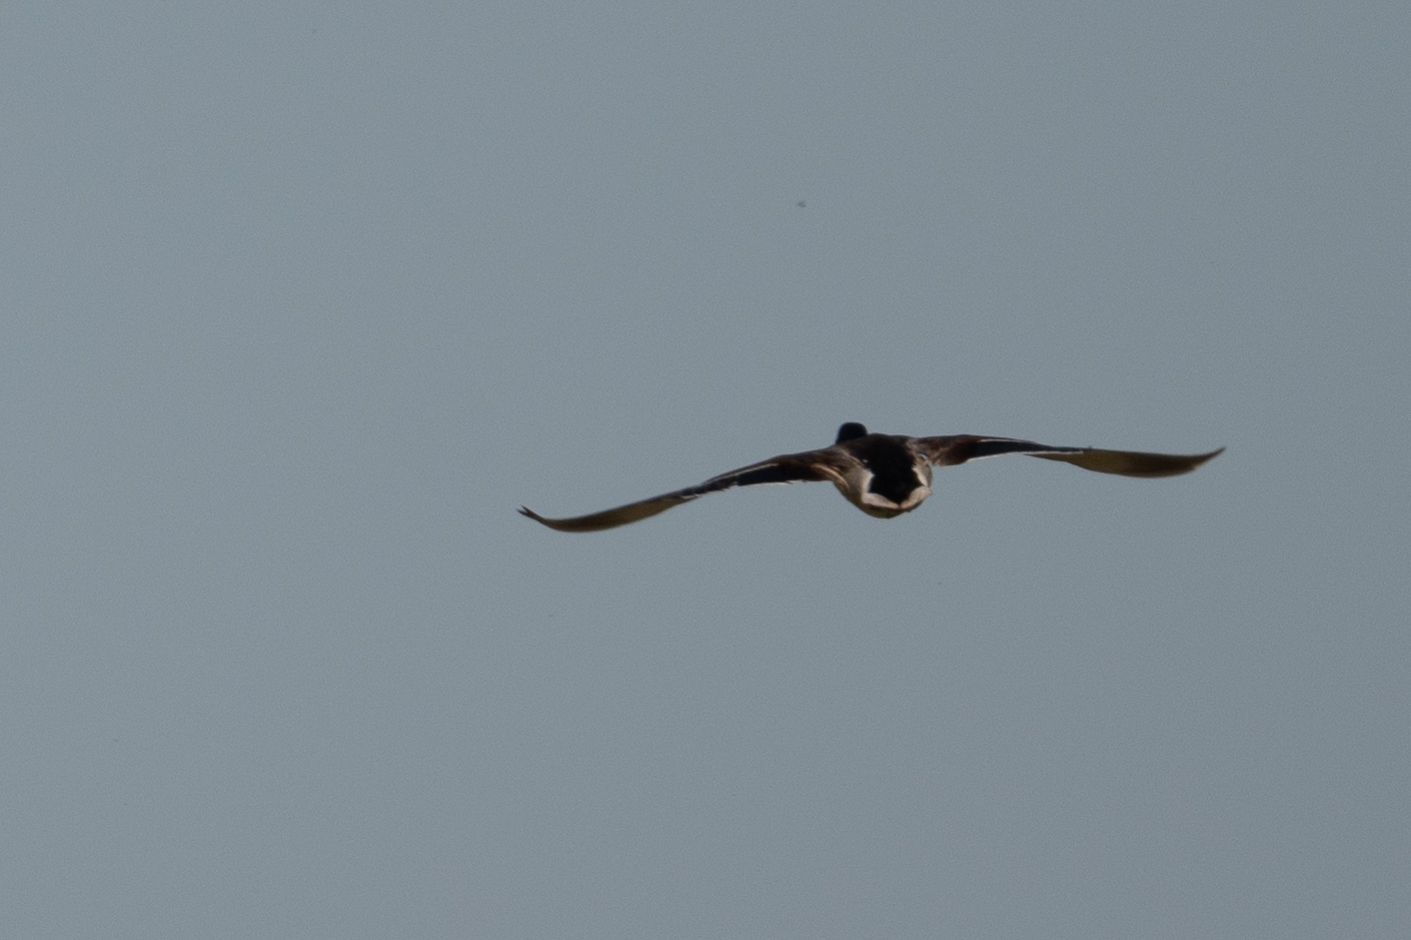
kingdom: Animalia
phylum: Chordata
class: Aves
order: Anseriformes
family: Anatidae
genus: Anas
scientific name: Anas platyrhynchos
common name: Mallard
